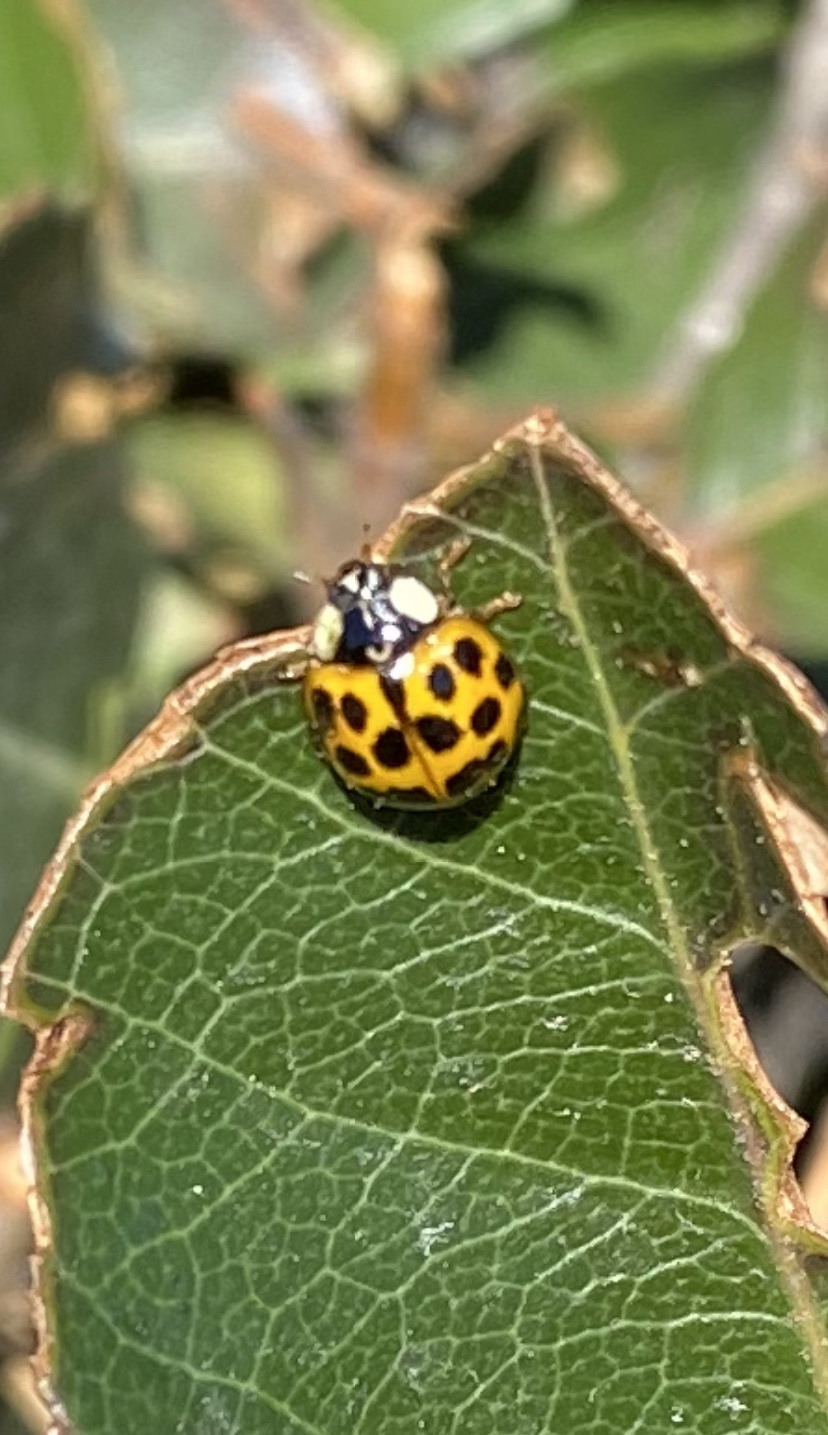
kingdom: Animalia
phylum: Arthropoda
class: Insecta
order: Coleoptera
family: Coccinellidae
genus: Harmonia
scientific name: Harmonia axyridis
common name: Harlequin ladybird
